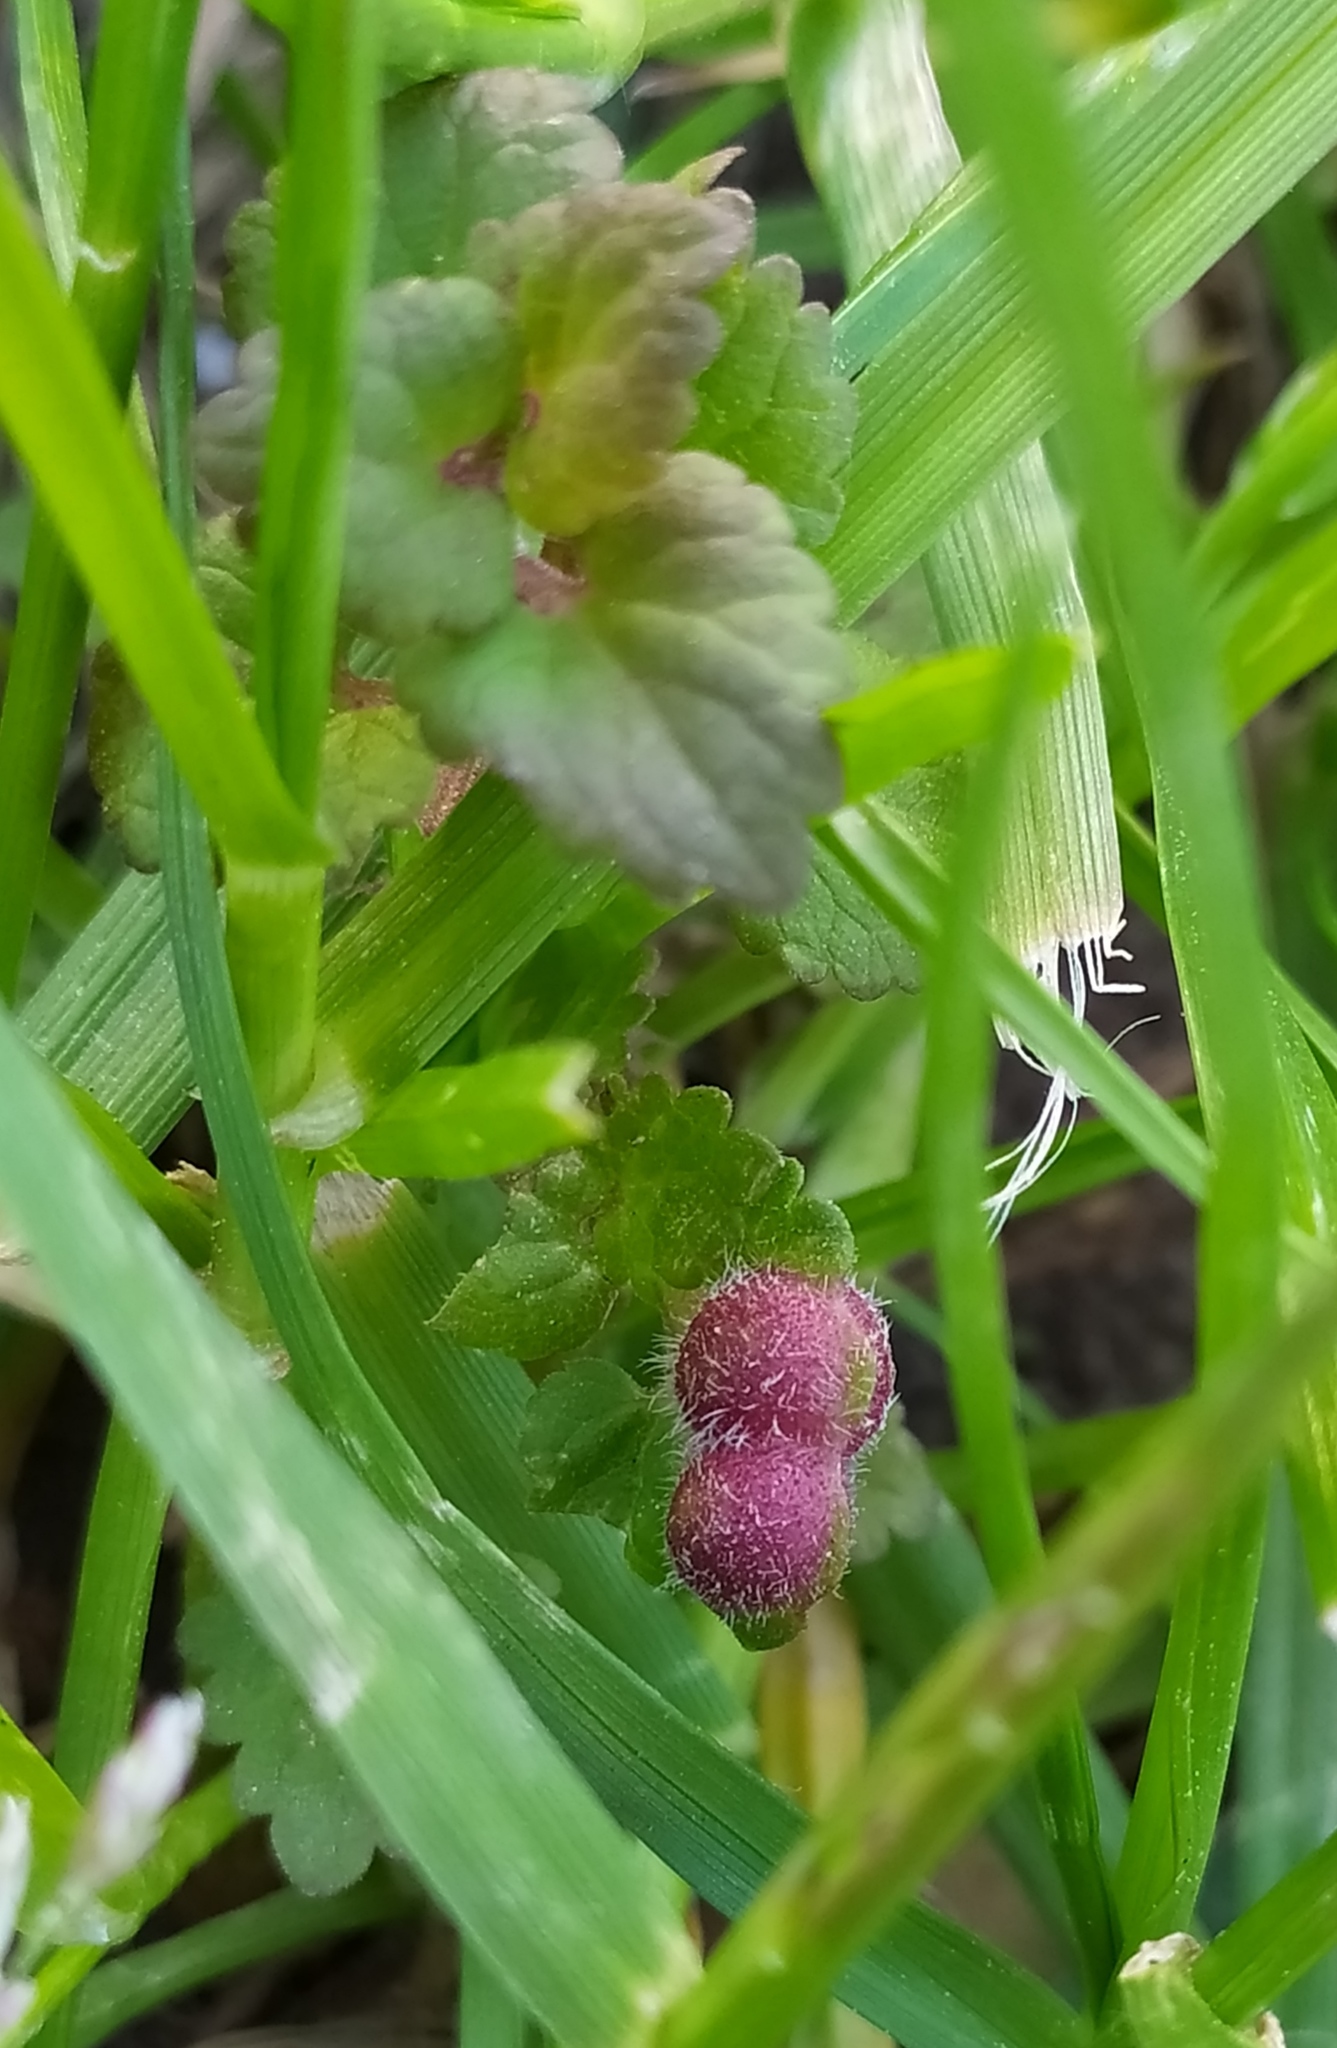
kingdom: Animalia
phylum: Arthropoda
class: Insecta
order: Hymenoptera
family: Cynipidae
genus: Liposthenes
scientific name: Liposthenes glechomae
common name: Gall wasp
